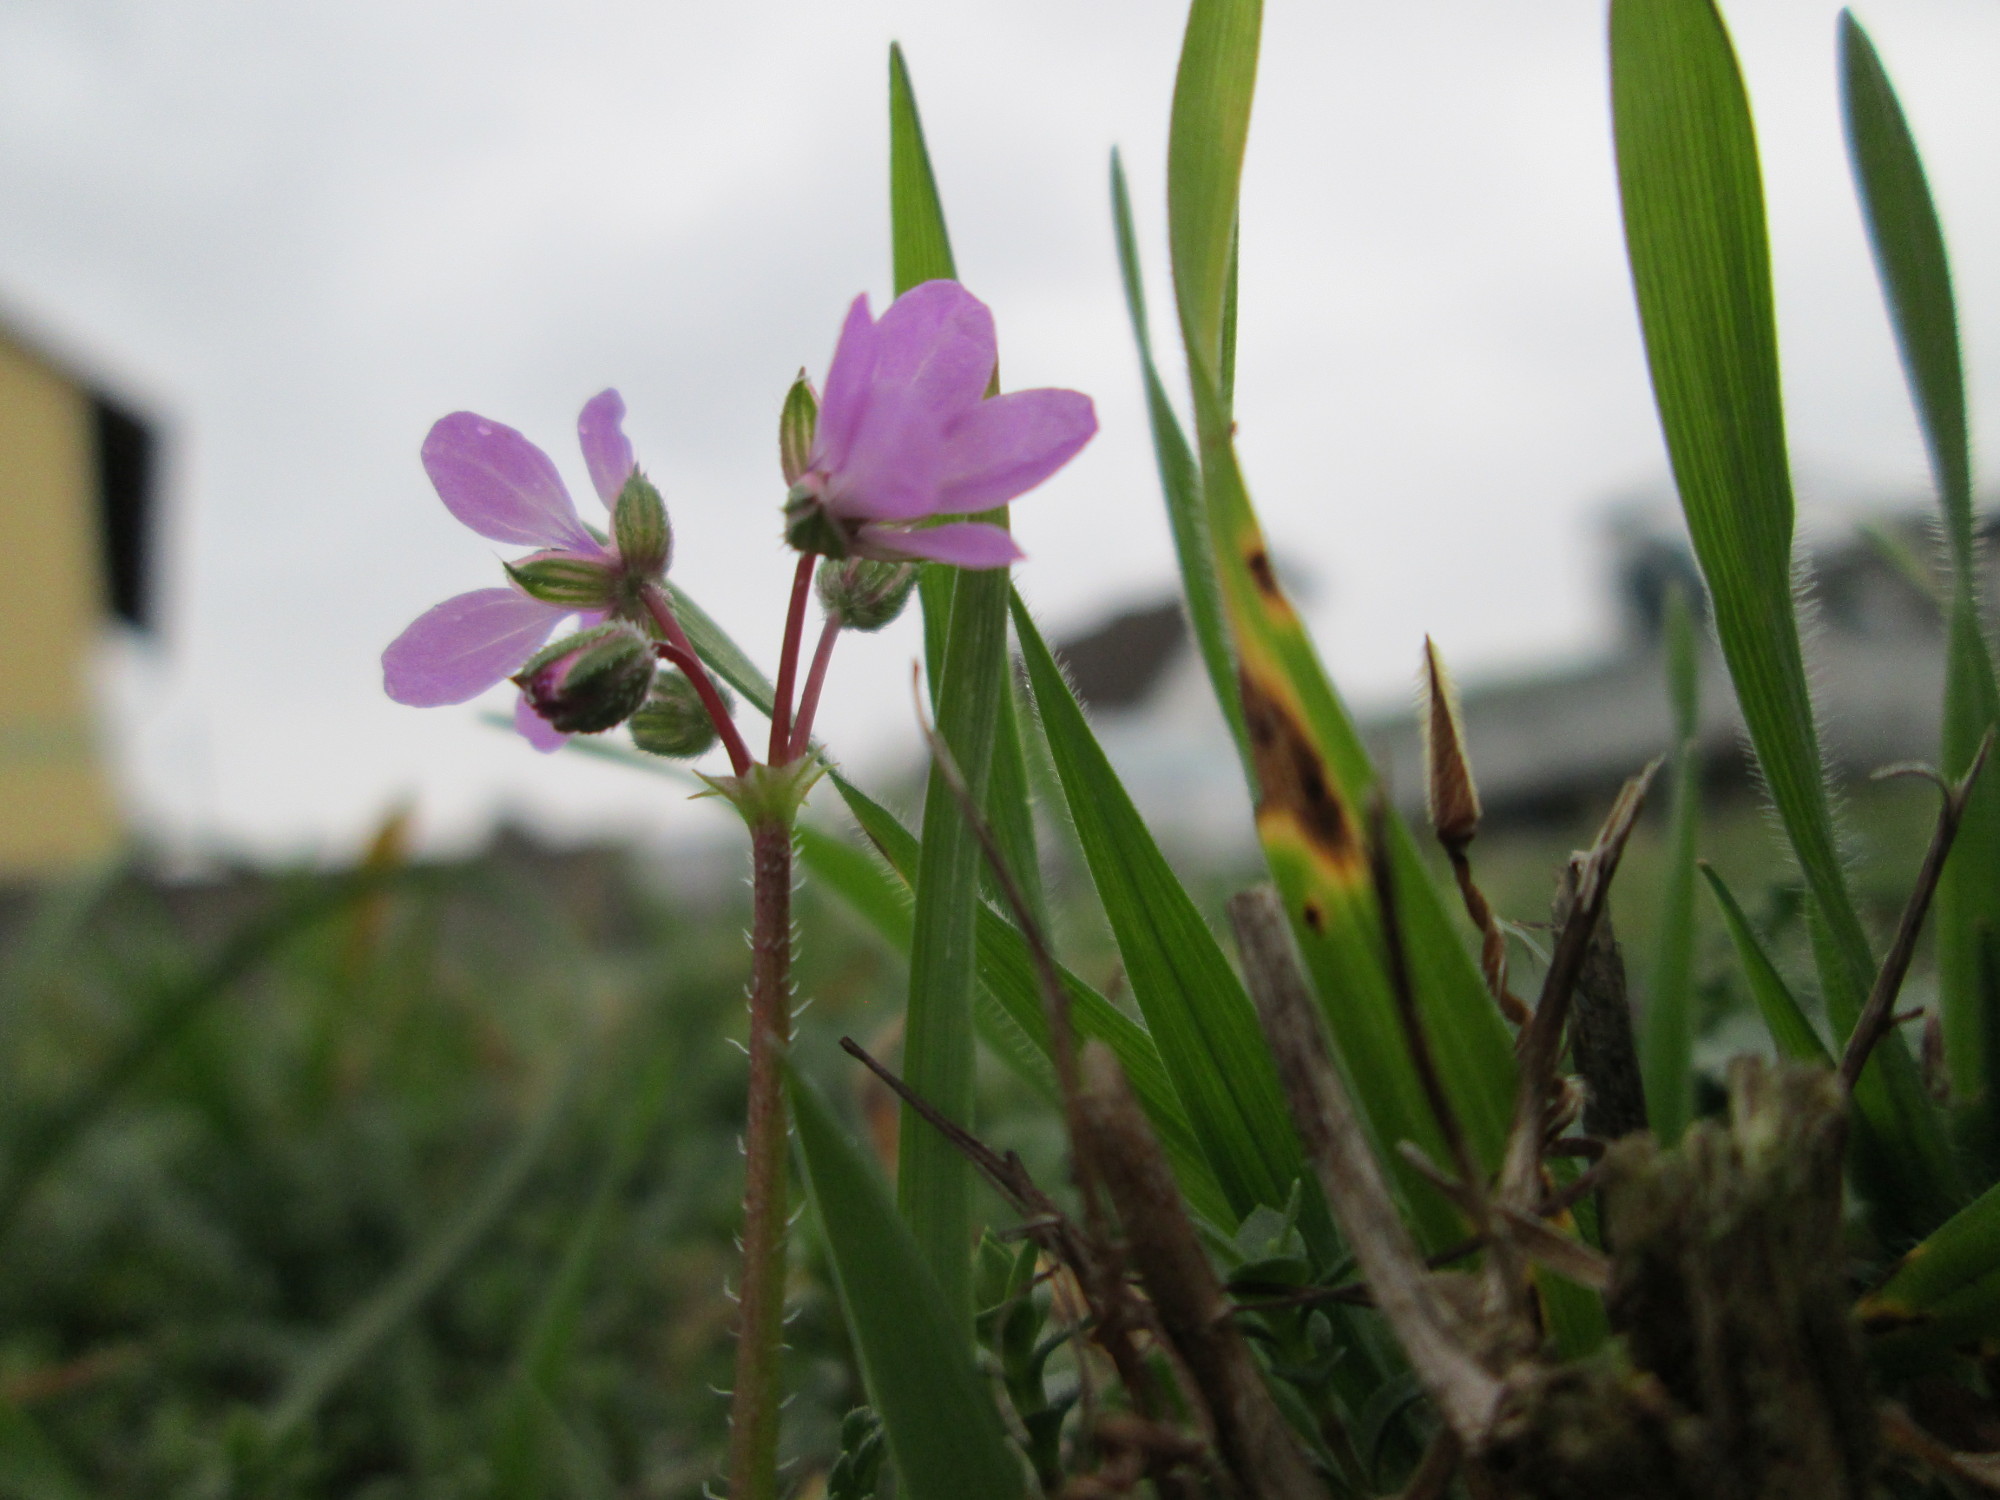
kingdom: Plantae
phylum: Tracheophyta
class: Magnoliopsida
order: Geraniales
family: Geraniaceae
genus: Erodium
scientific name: Erodium cicutarium
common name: Common stork's-bill
